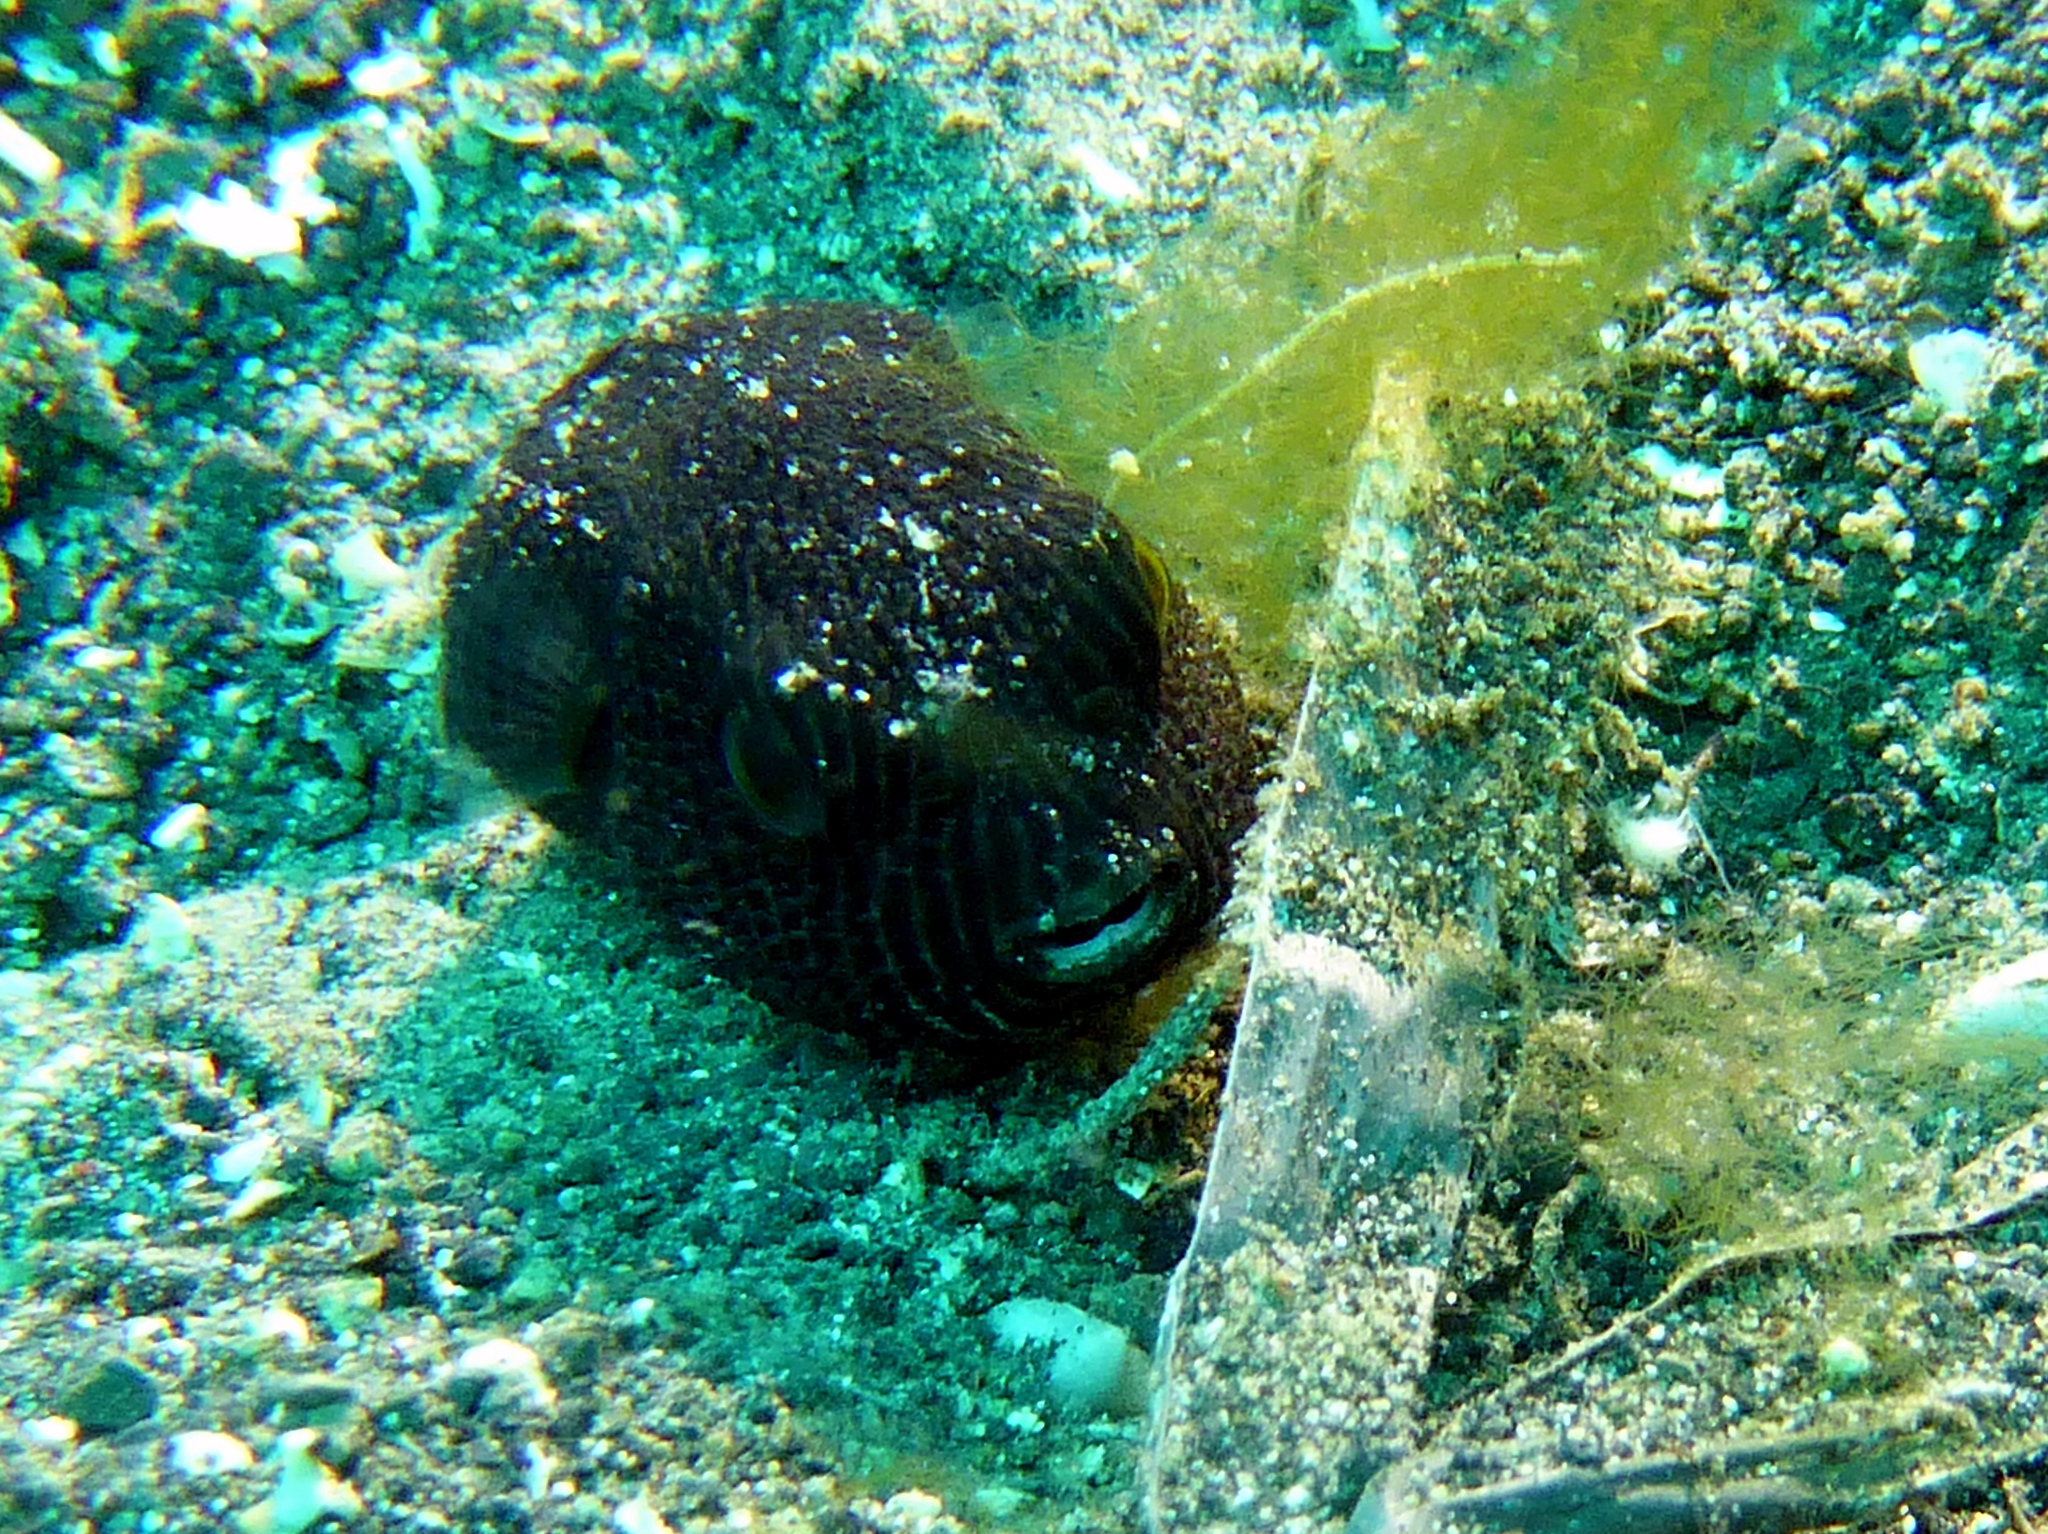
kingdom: Animalia
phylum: Chordata
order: Tetraodontiformes
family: Tetraodontidae
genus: Arothron
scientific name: Arothron stellatus
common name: Star blaasop
